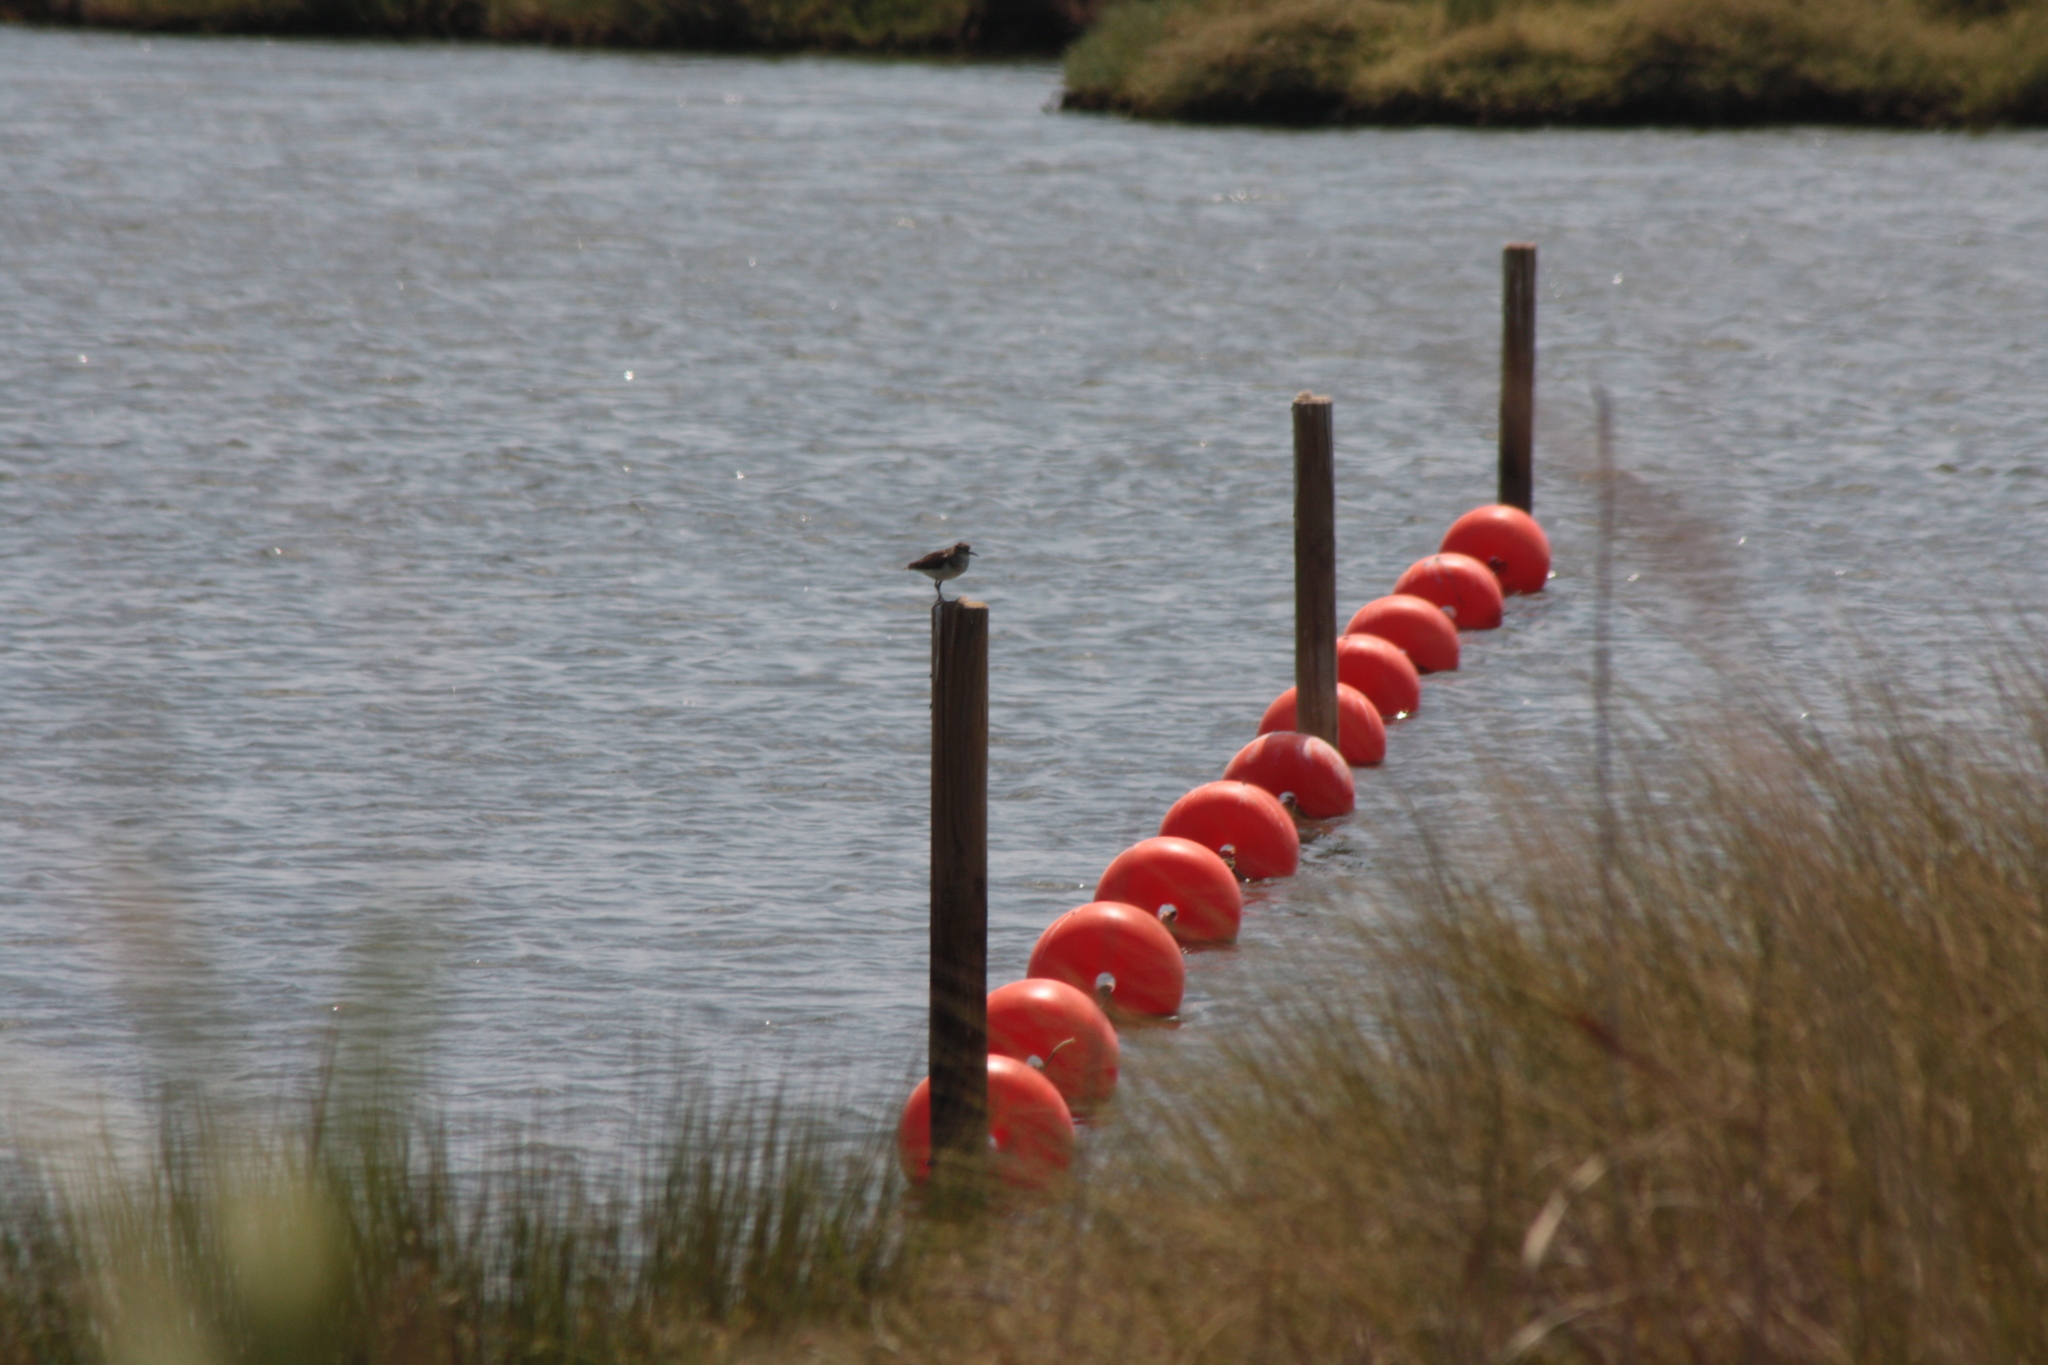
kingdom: Animalia
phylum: Chordata
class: Aves
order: Charadriiformes
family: Scolopacidae
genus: Actitis
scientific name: Actitis hypoleucos
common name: Common sandpiper
